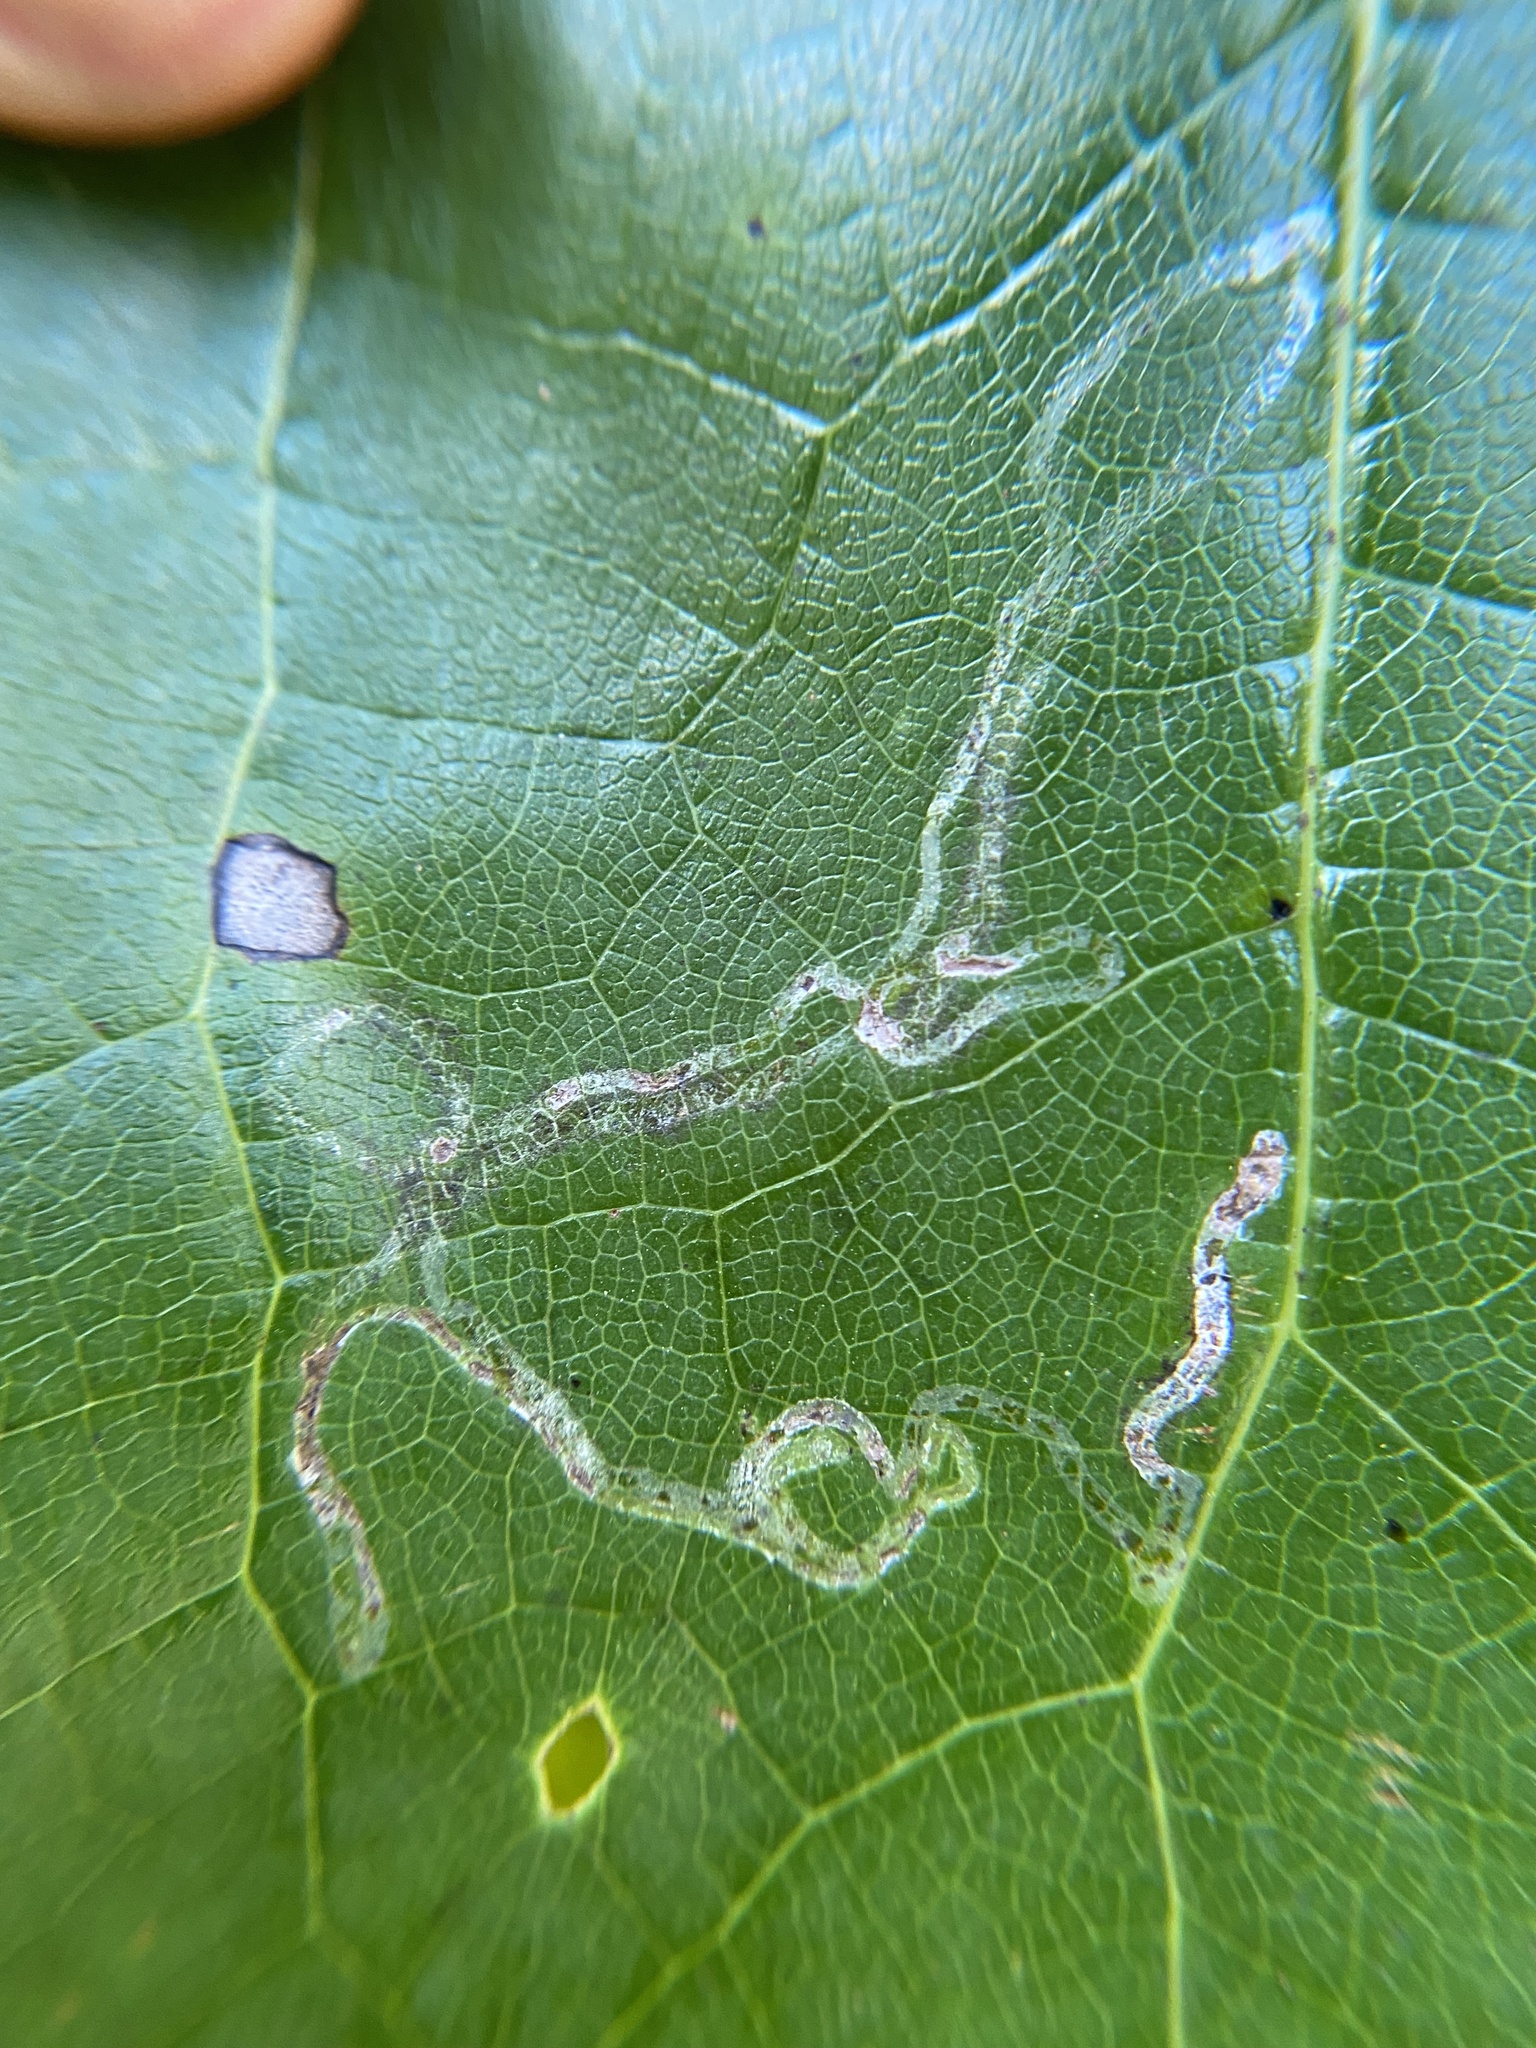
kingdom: Animalia
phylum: Arthropoda
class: Insecta
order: Lepidoptera
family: Gracillariidae
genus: Phyllocnistis
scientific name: Phyllocnistis liriodendronella
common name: Tulip tree leaf miner
